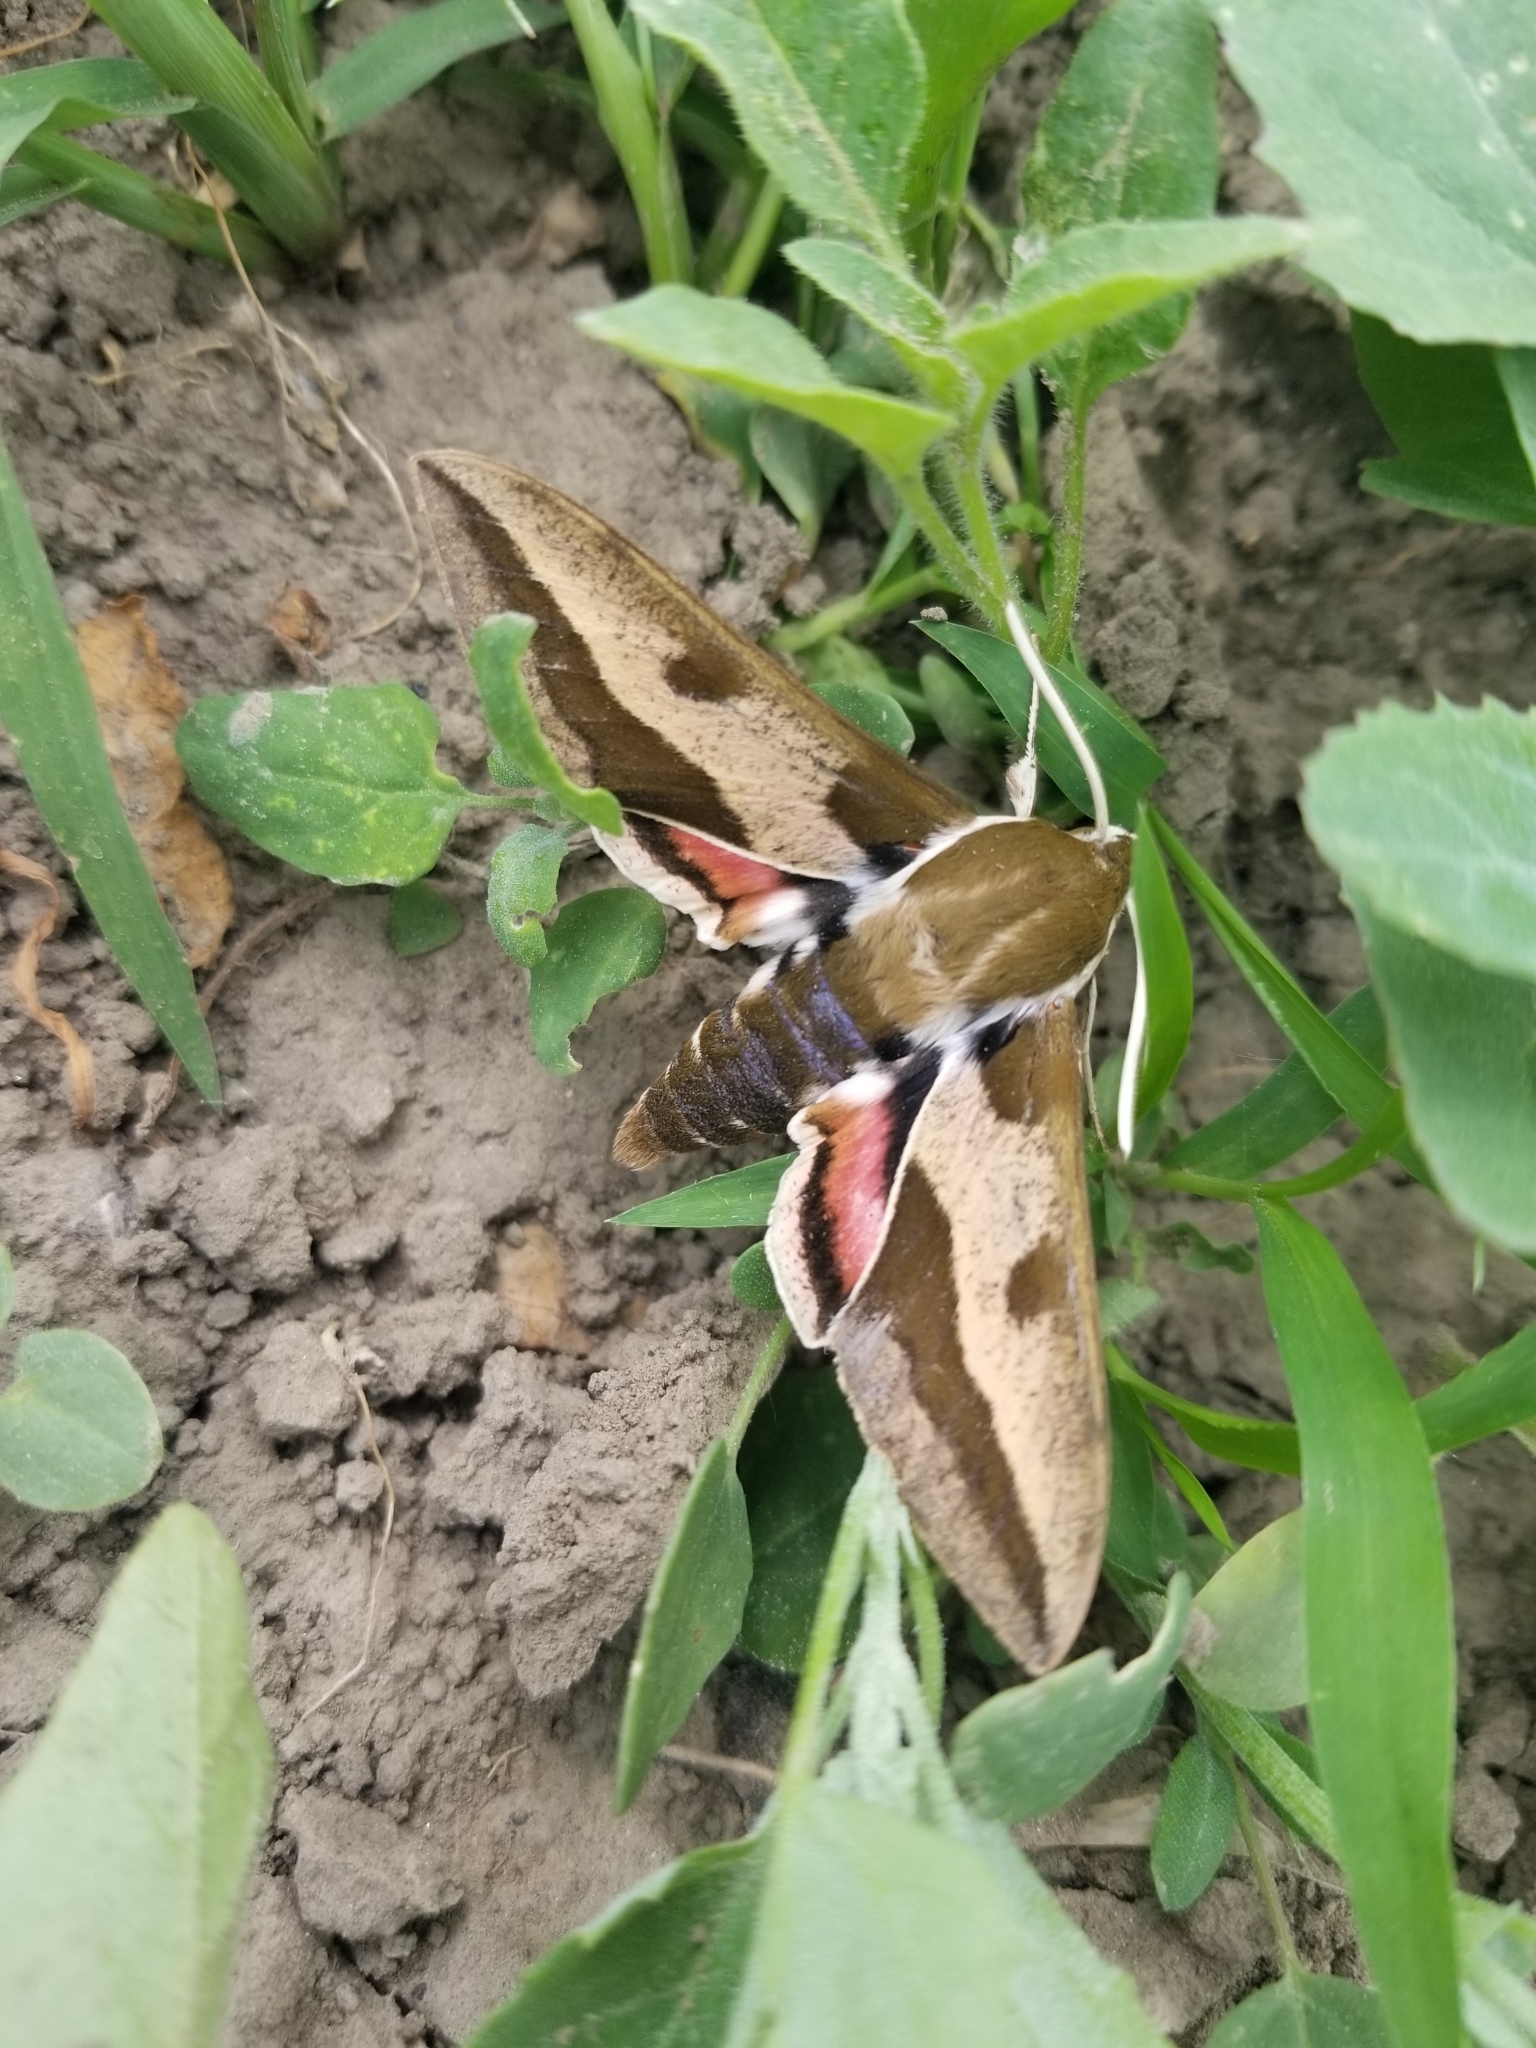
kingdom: Animalia
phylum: Arthropoda
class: Insecta
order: Lepidoptera
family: Sphingidae
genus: Hyles
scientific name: Hyles euphorbiae
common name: Spurge hawk-moth
